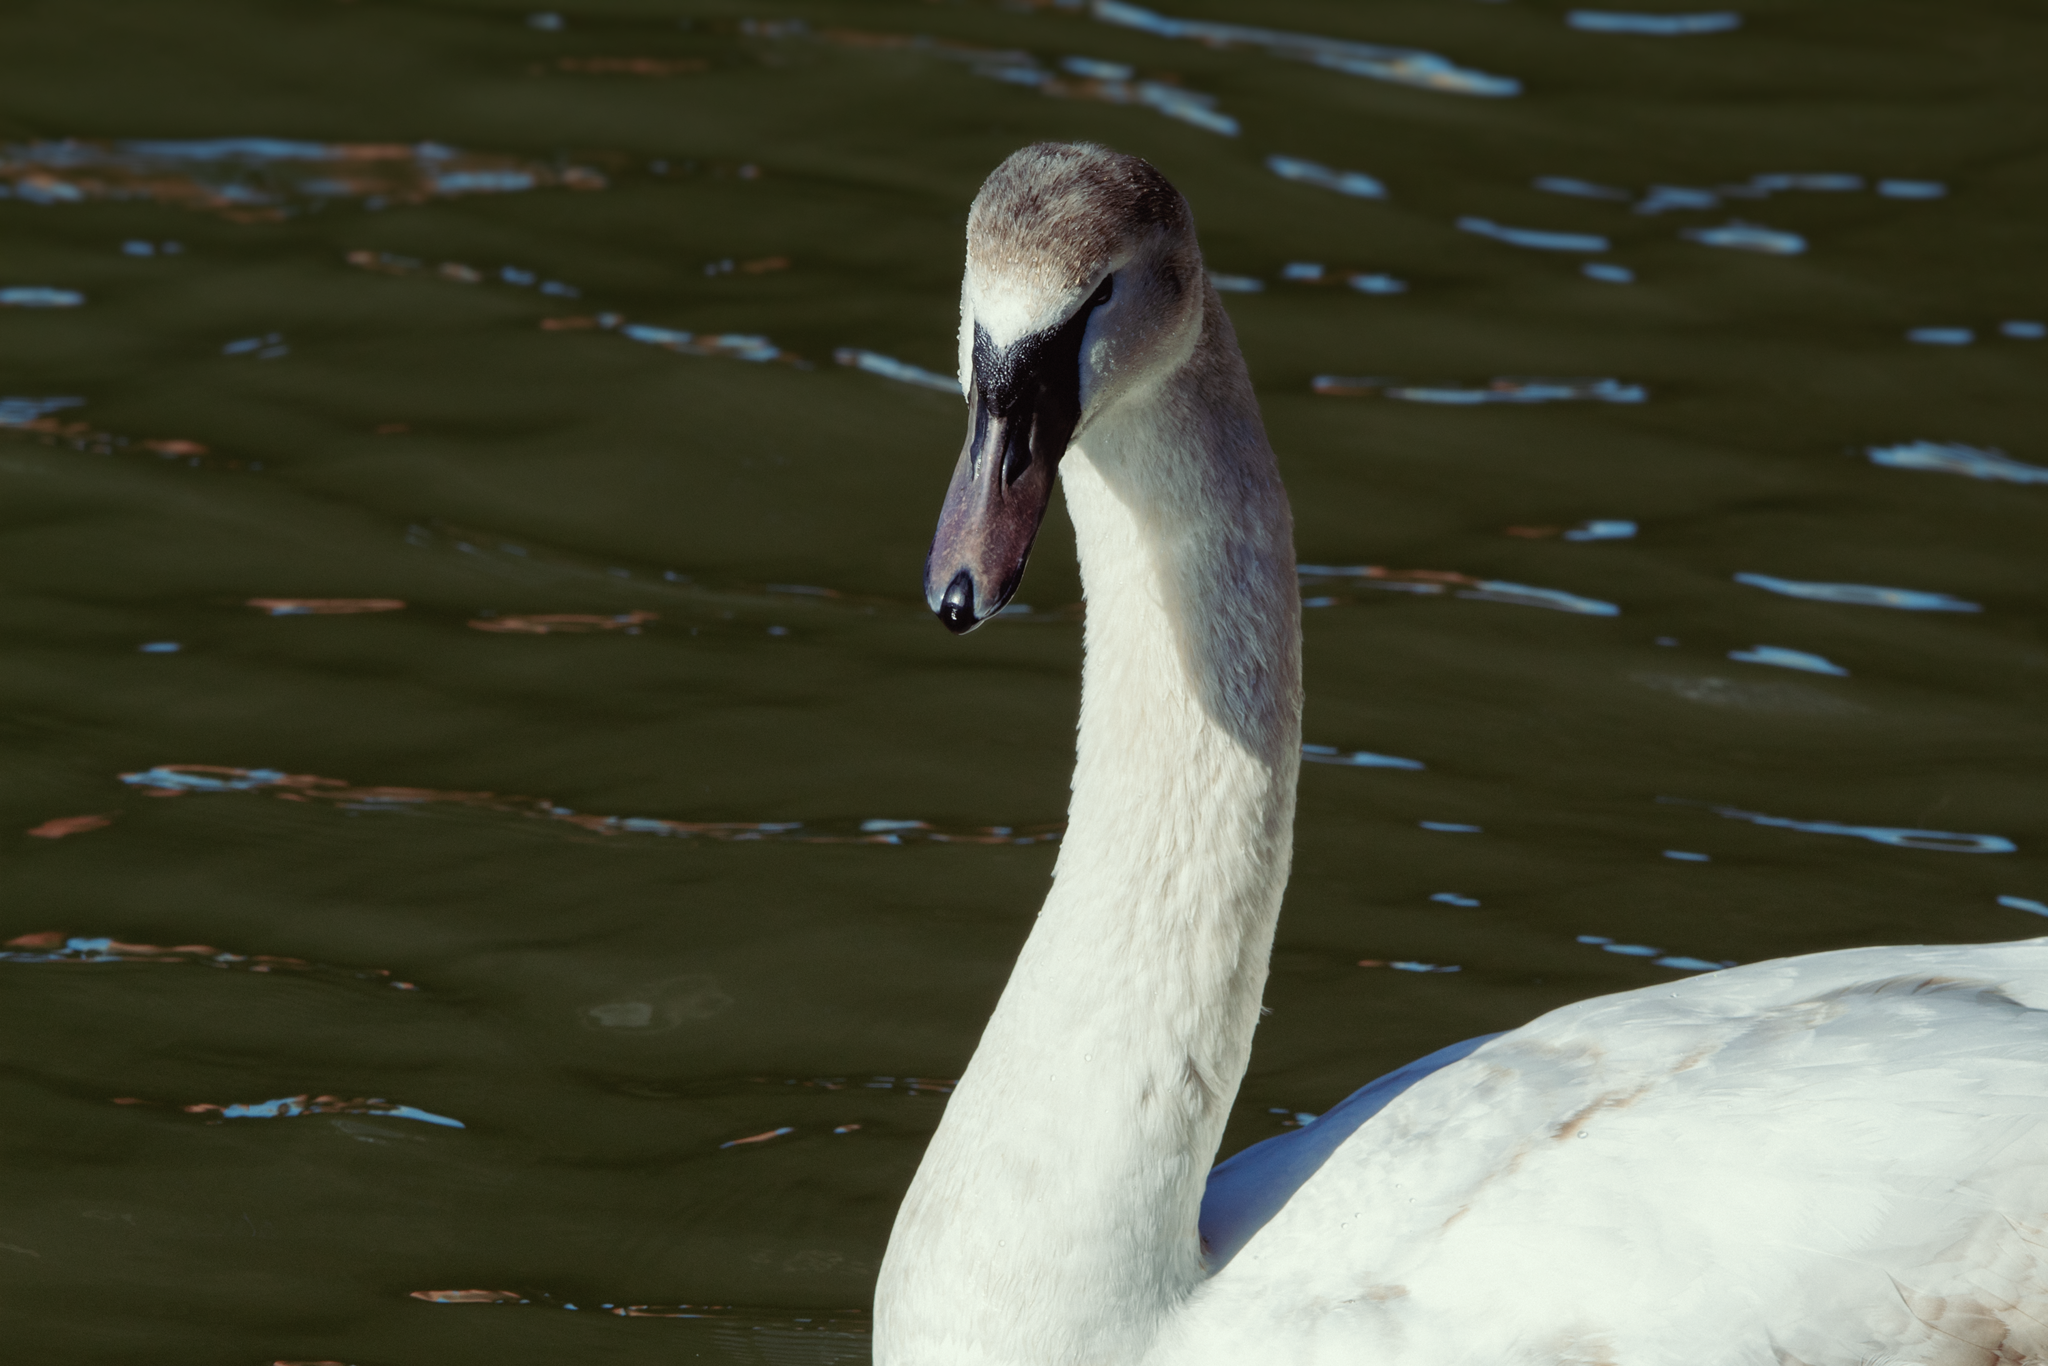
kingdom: Animalia
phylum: Chordata
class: Aves
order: Anseriformes
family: Anatidae
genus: Cygnus
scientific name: Cygnus olor
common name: Mute swan
